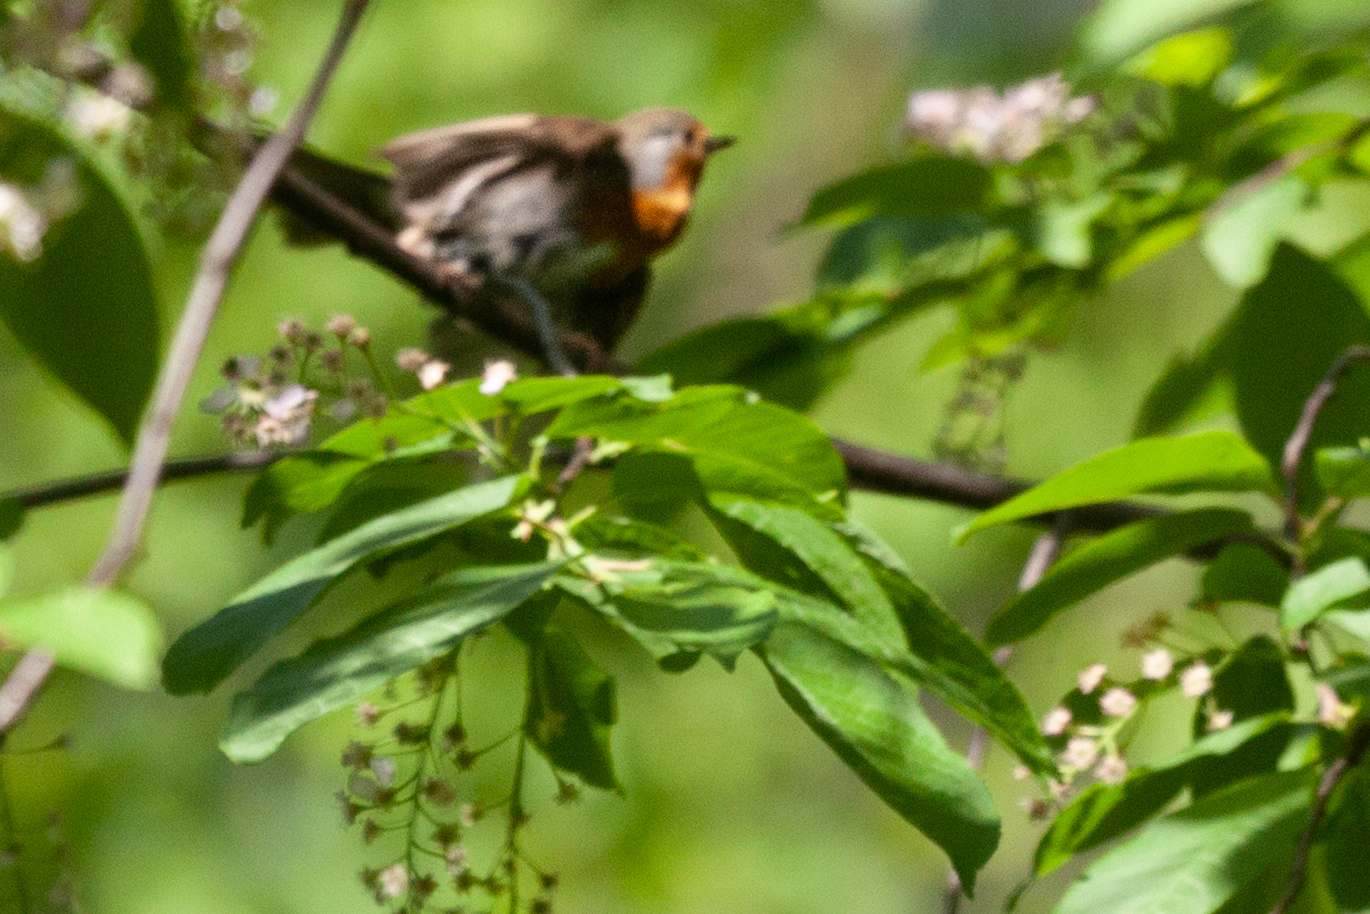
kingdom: Animalia
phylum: Chordata
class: Aves
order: Passeriformes
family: Muscicapidae
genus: Erithacus
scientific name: Erithacus rubecula
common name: European robin
